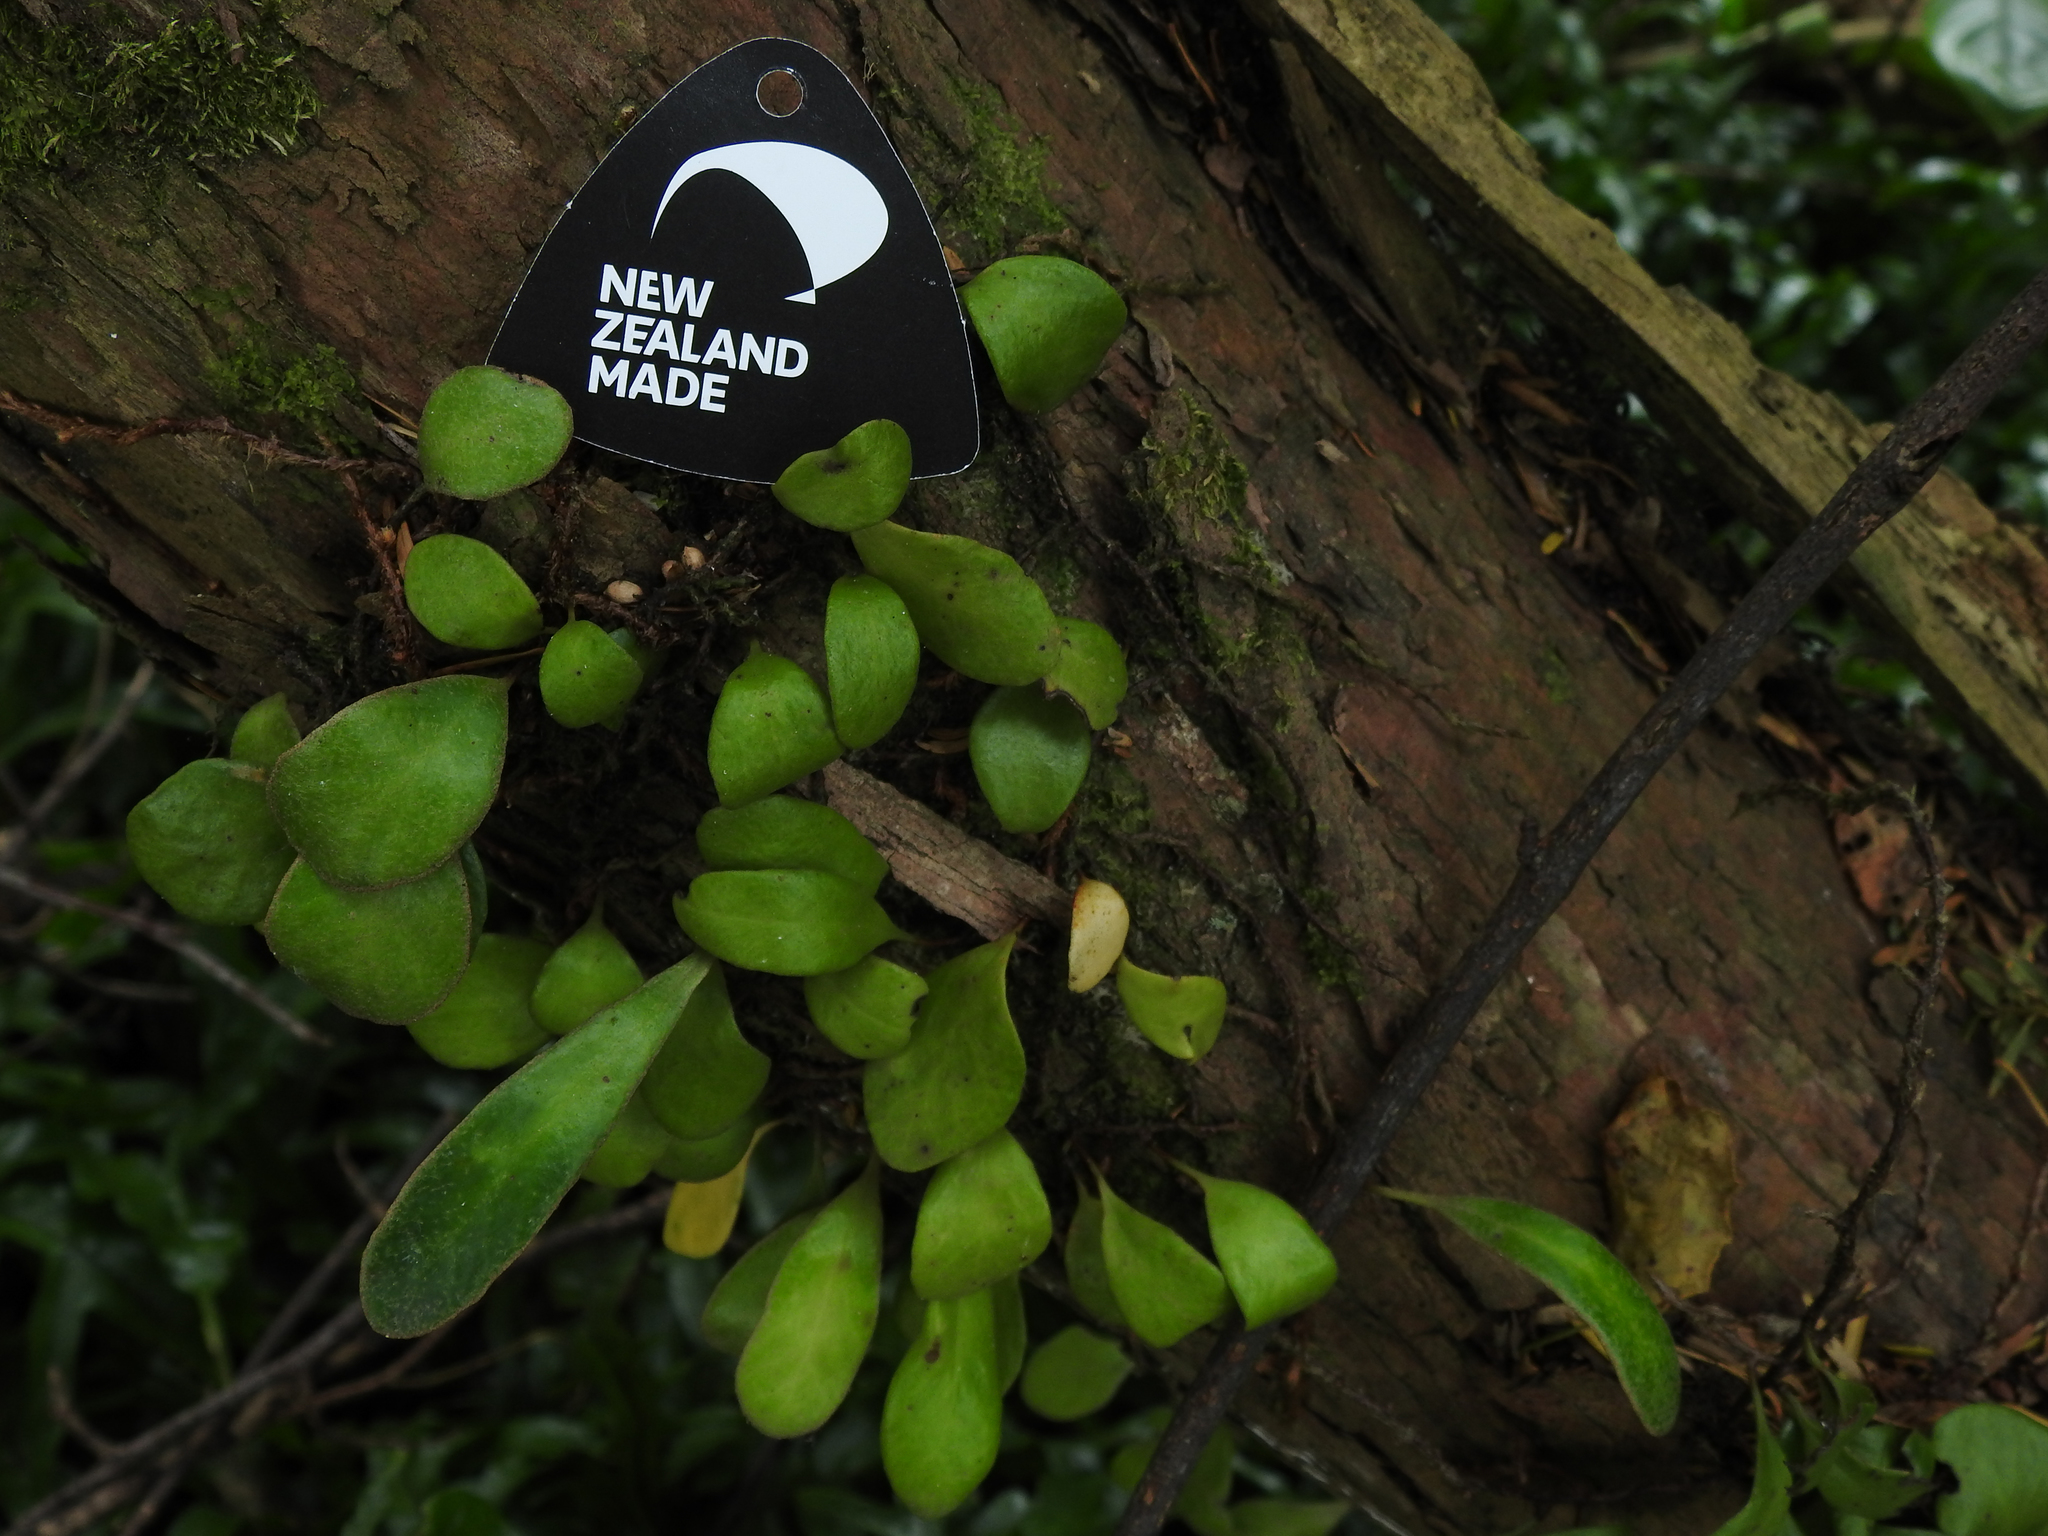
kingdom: Plantae
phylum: Tracheophyta
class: Polypodiopsida
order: Polypodiales
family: Polypodiaceae
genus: Pyrrosia
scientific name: Pyrrosia eleagnifolia
